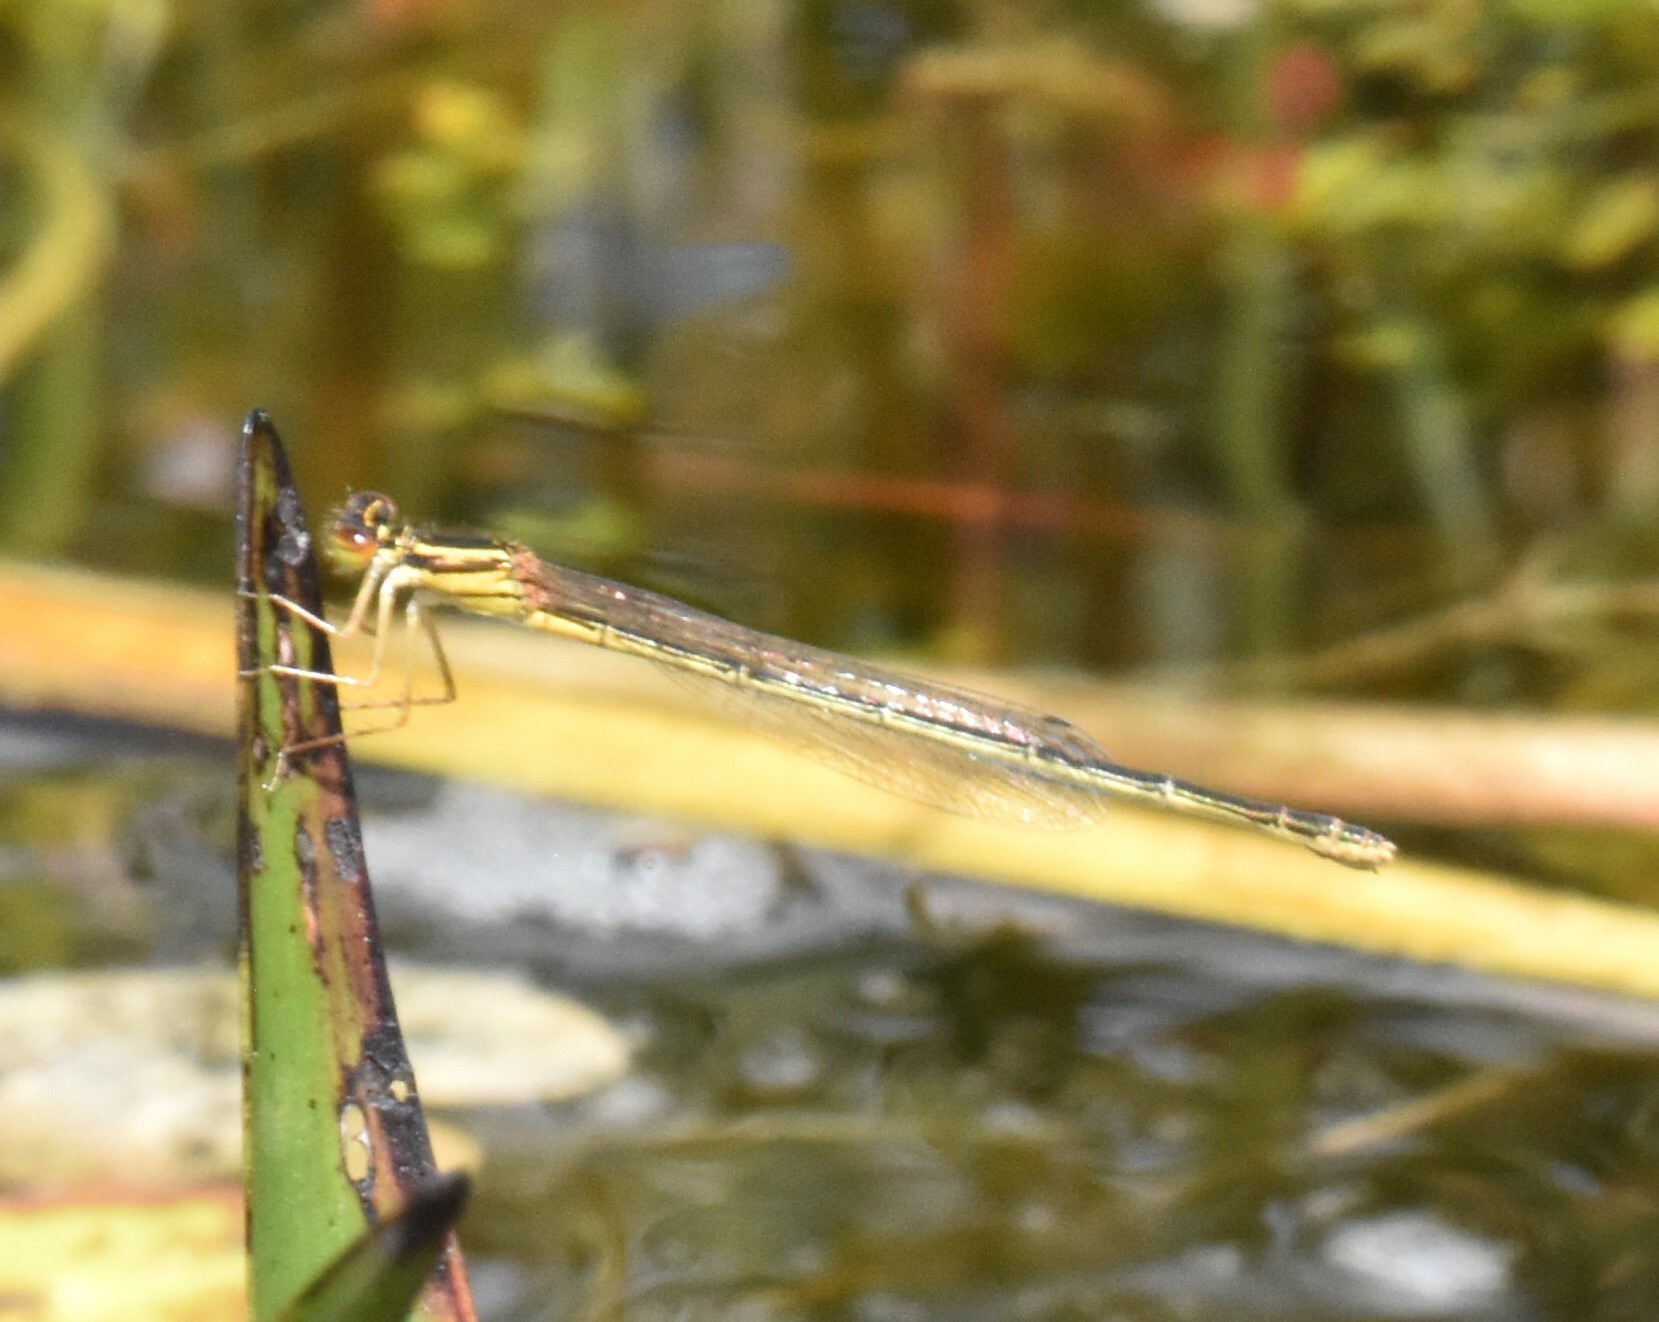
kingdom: Animalia
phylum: Arthropoda
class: Insecta
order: Odonata
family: Coenagrionidae
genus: Enallagma
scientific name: Enallagma pictum
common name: Scarlet bluet
